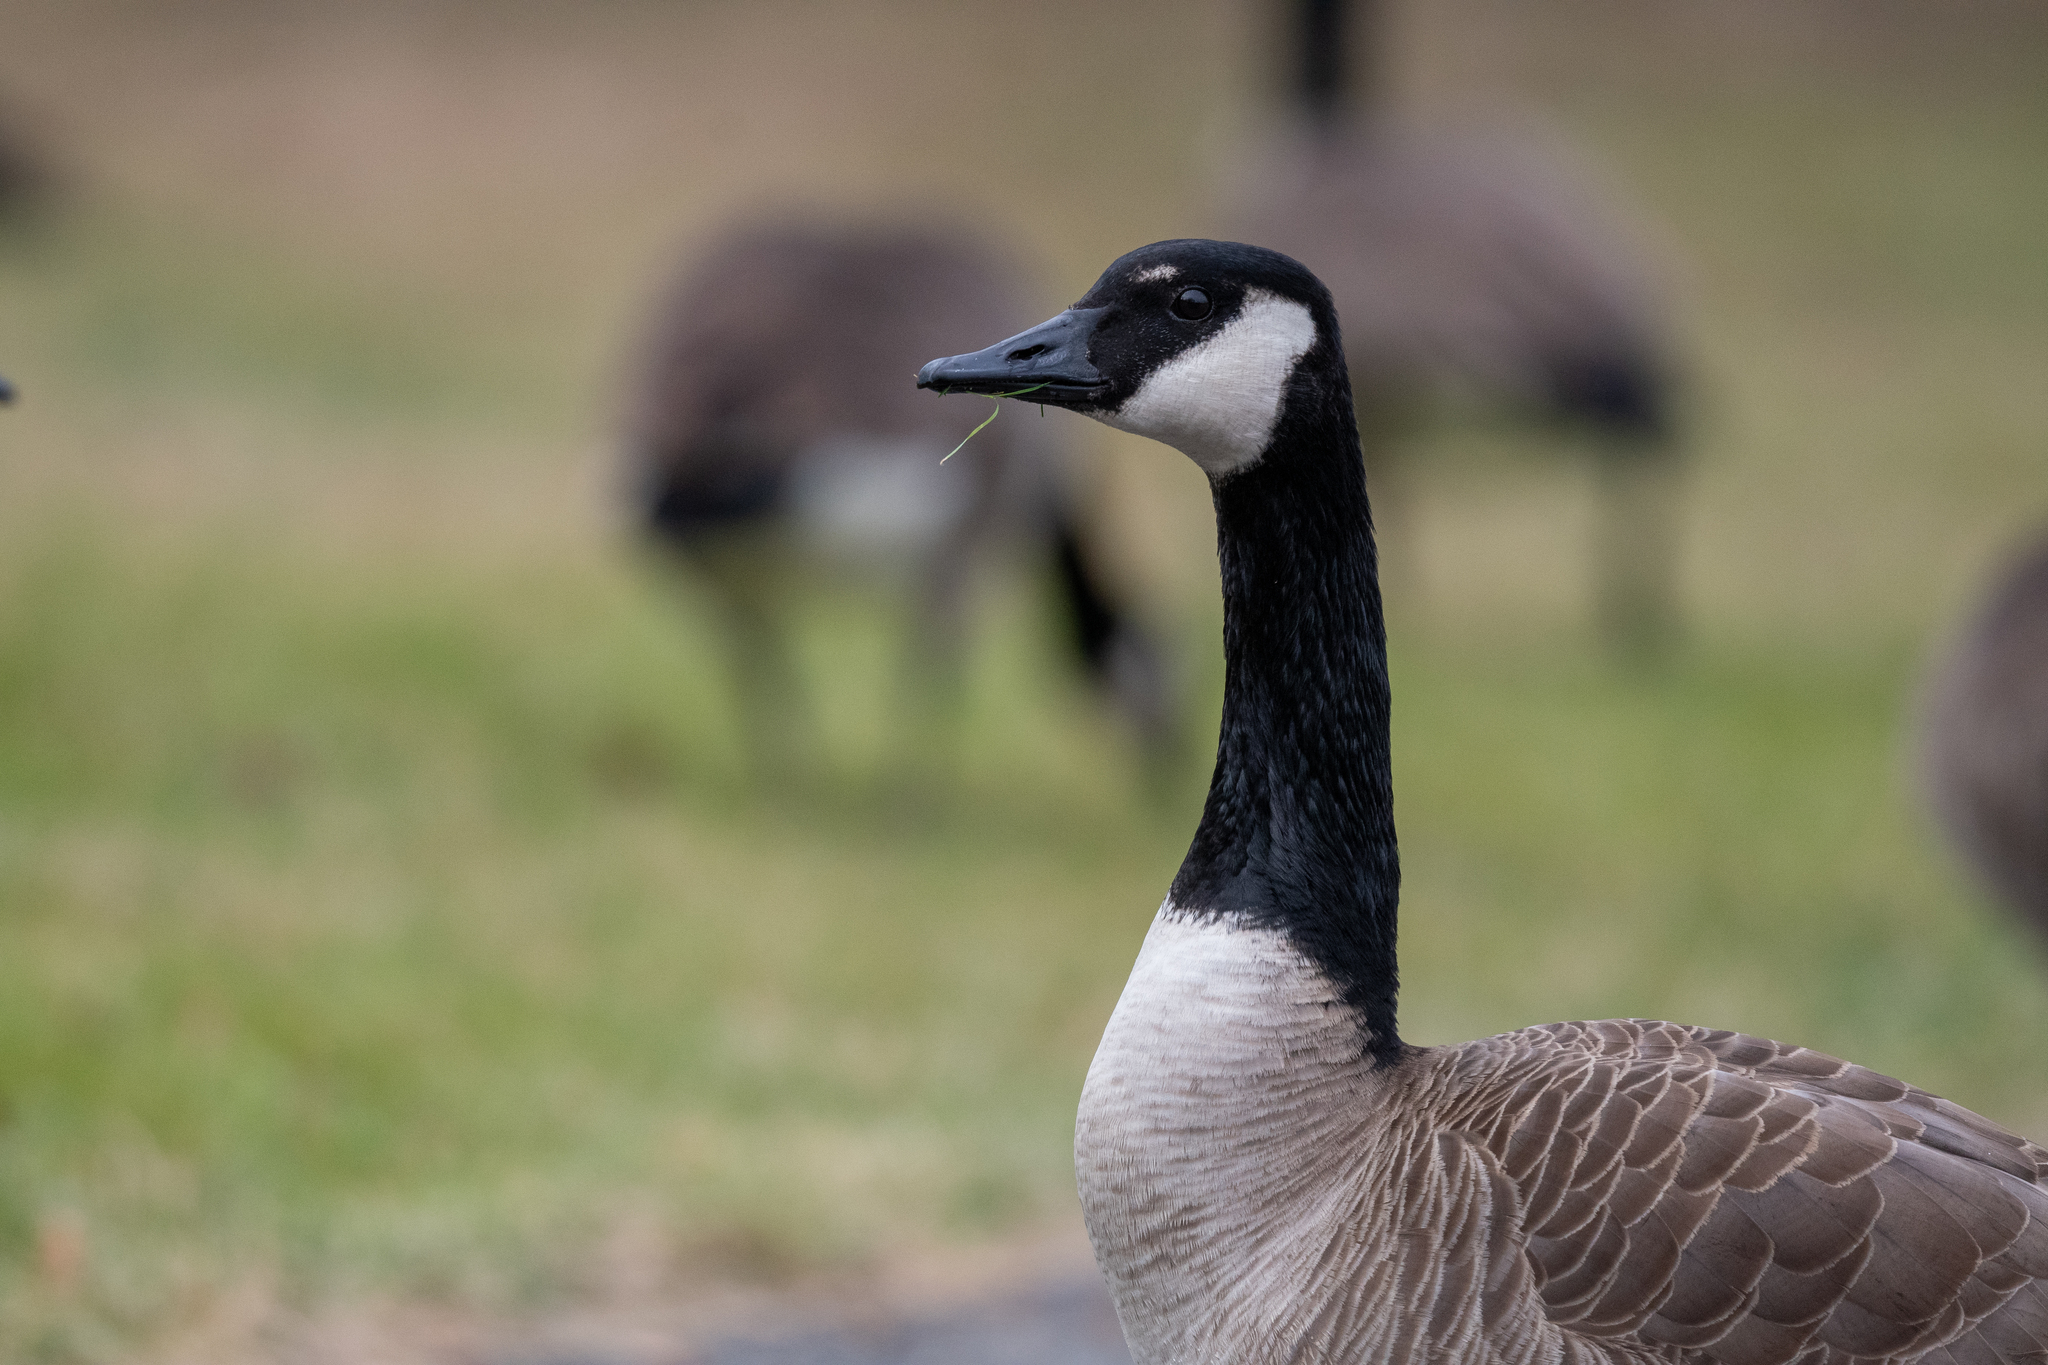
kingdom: Animalia
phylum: Chordata
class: Aves
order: Anseriformes
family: Anatidae
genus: Branta
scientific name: Branta canadensis
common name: Canada goose
